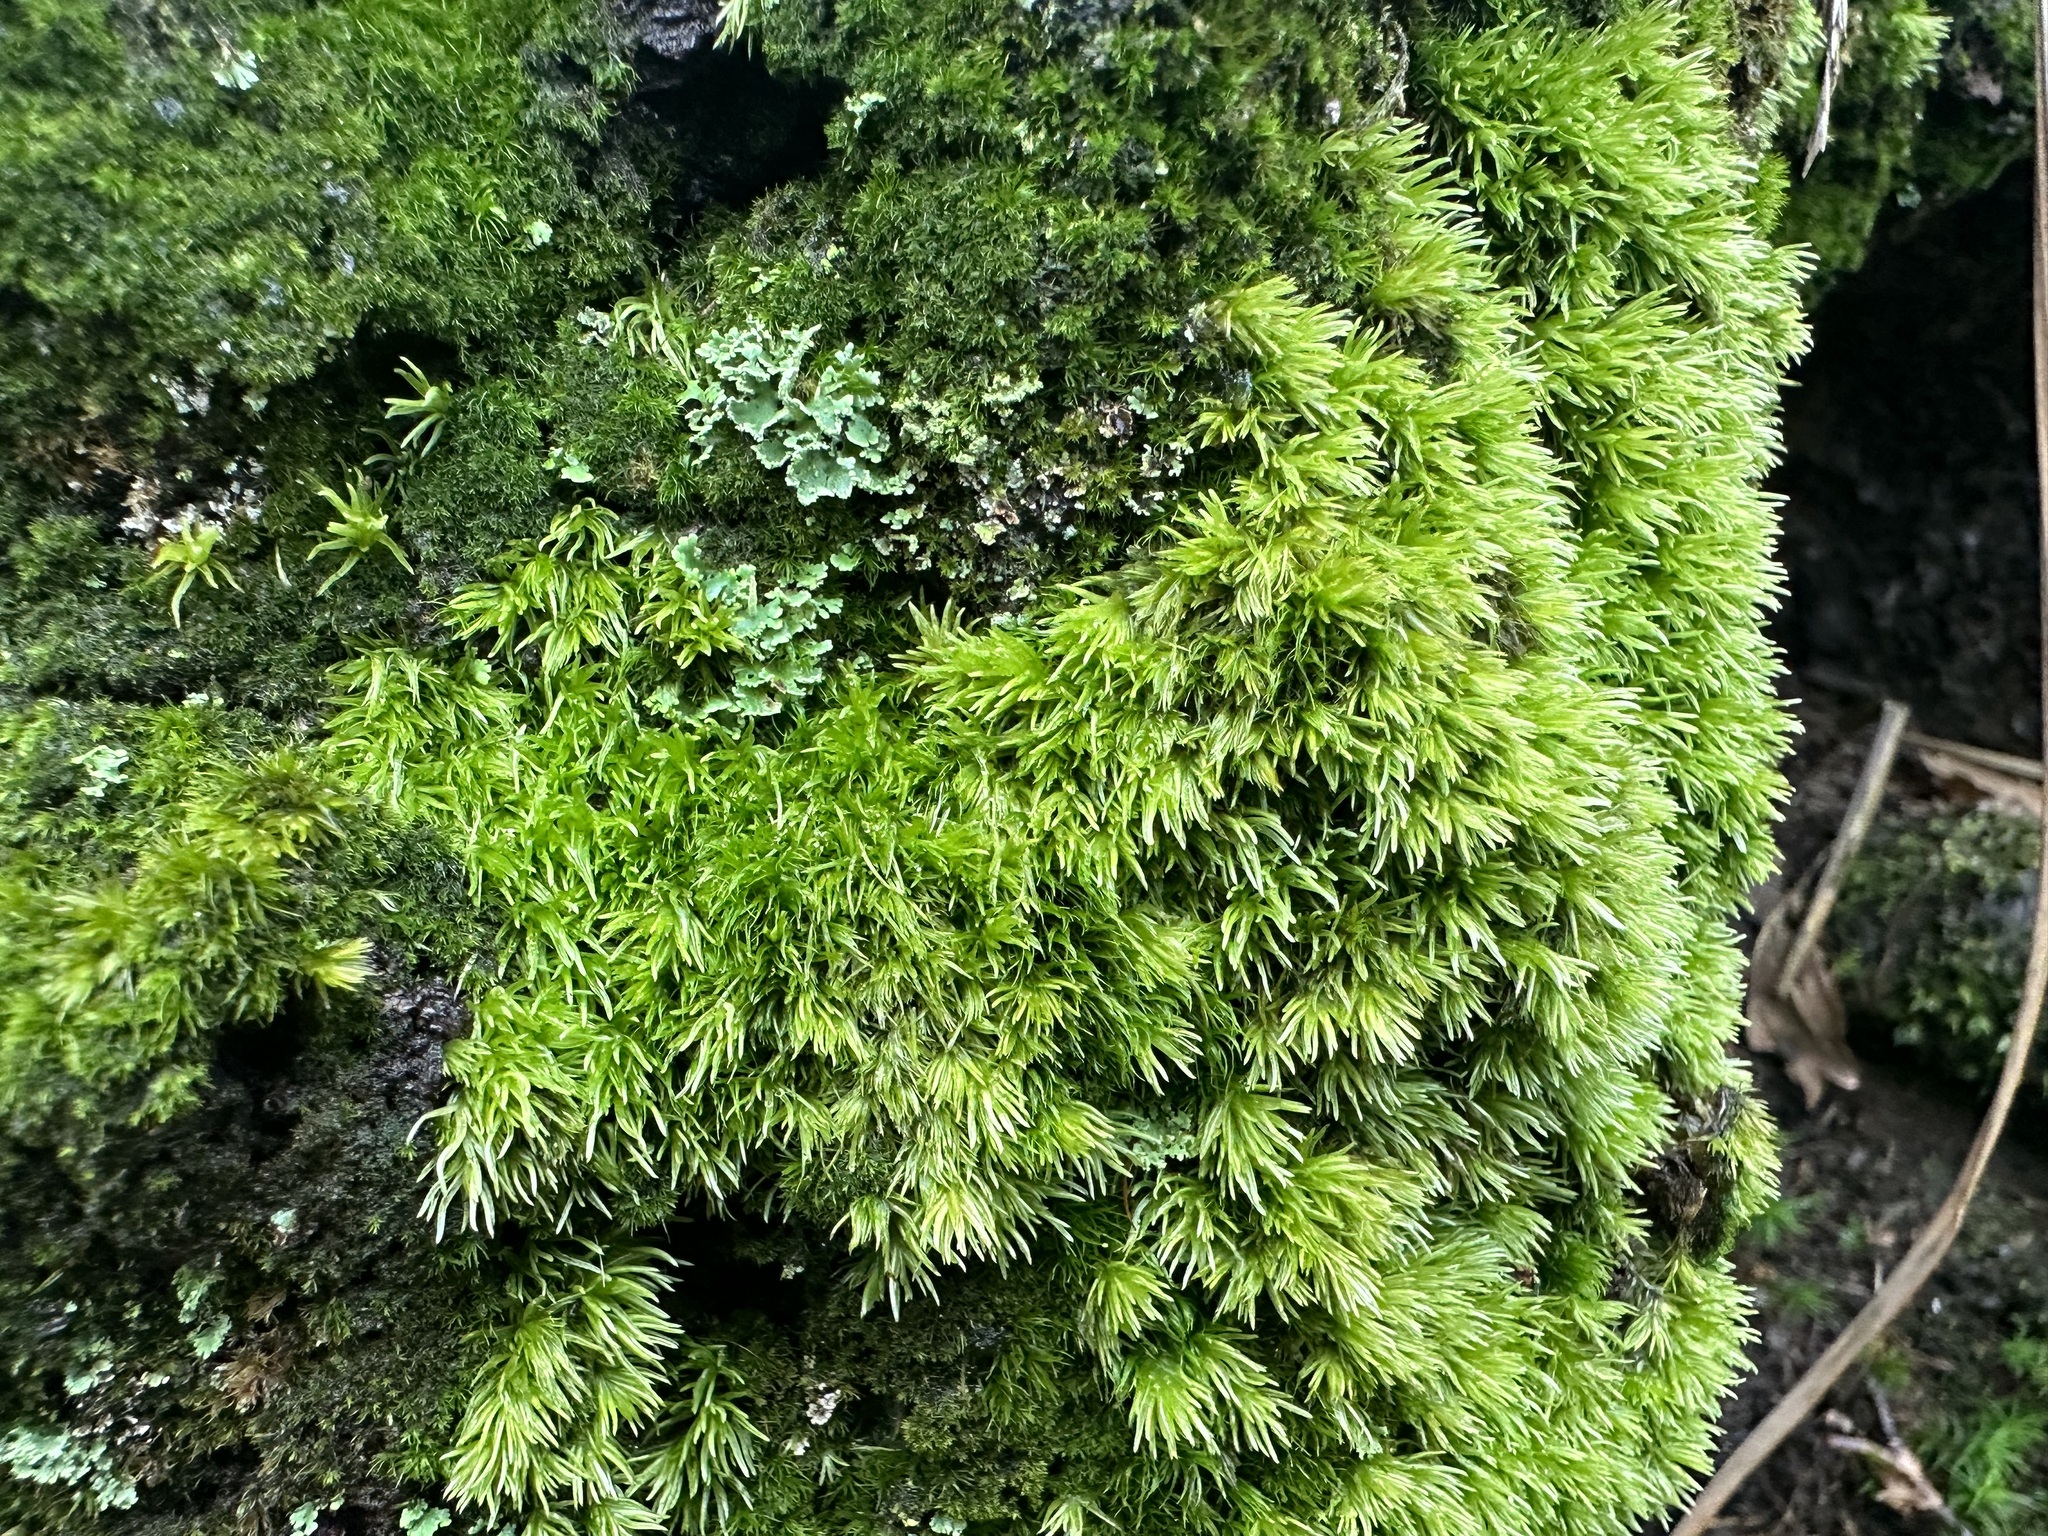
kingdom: Plantae
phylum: Bryophyta
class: Bryopsida
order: Dicranales
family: Leucobryaceae
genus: Leucobryum
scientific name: Leucobryum juniperoideum
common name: Smaller white-moss
